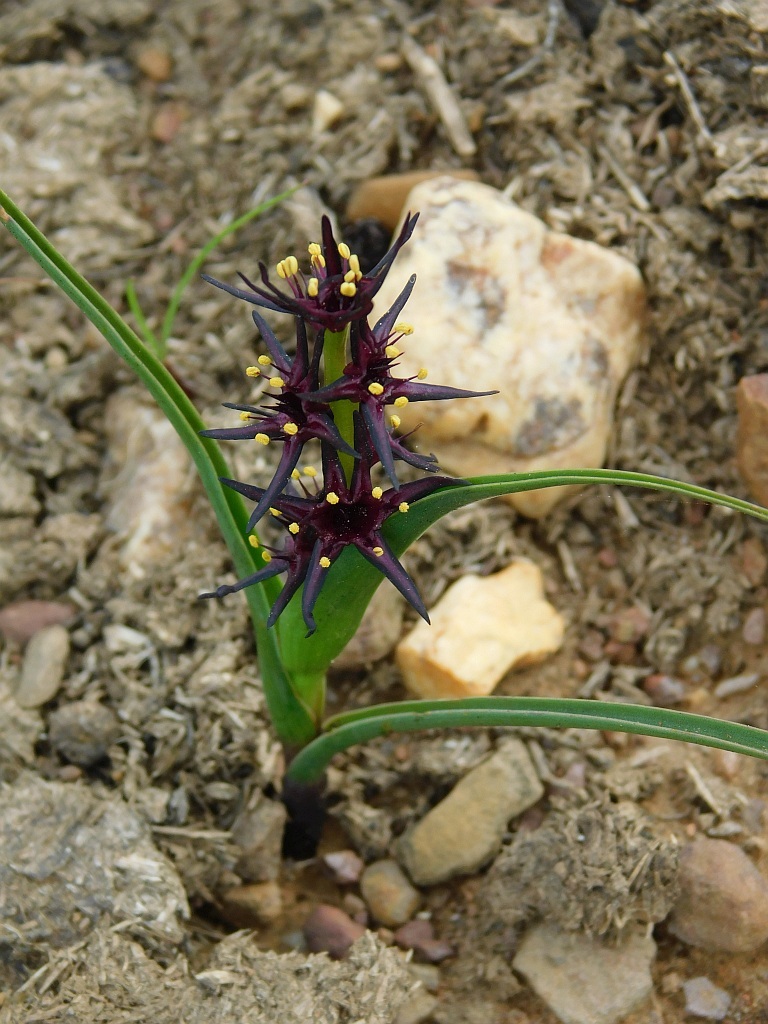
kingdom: Plantae
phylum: Tracheophyta
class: Liliopsida
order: Liliales
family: Colchicaceae
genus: Wurmbea
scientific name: Wurmbea marginata
